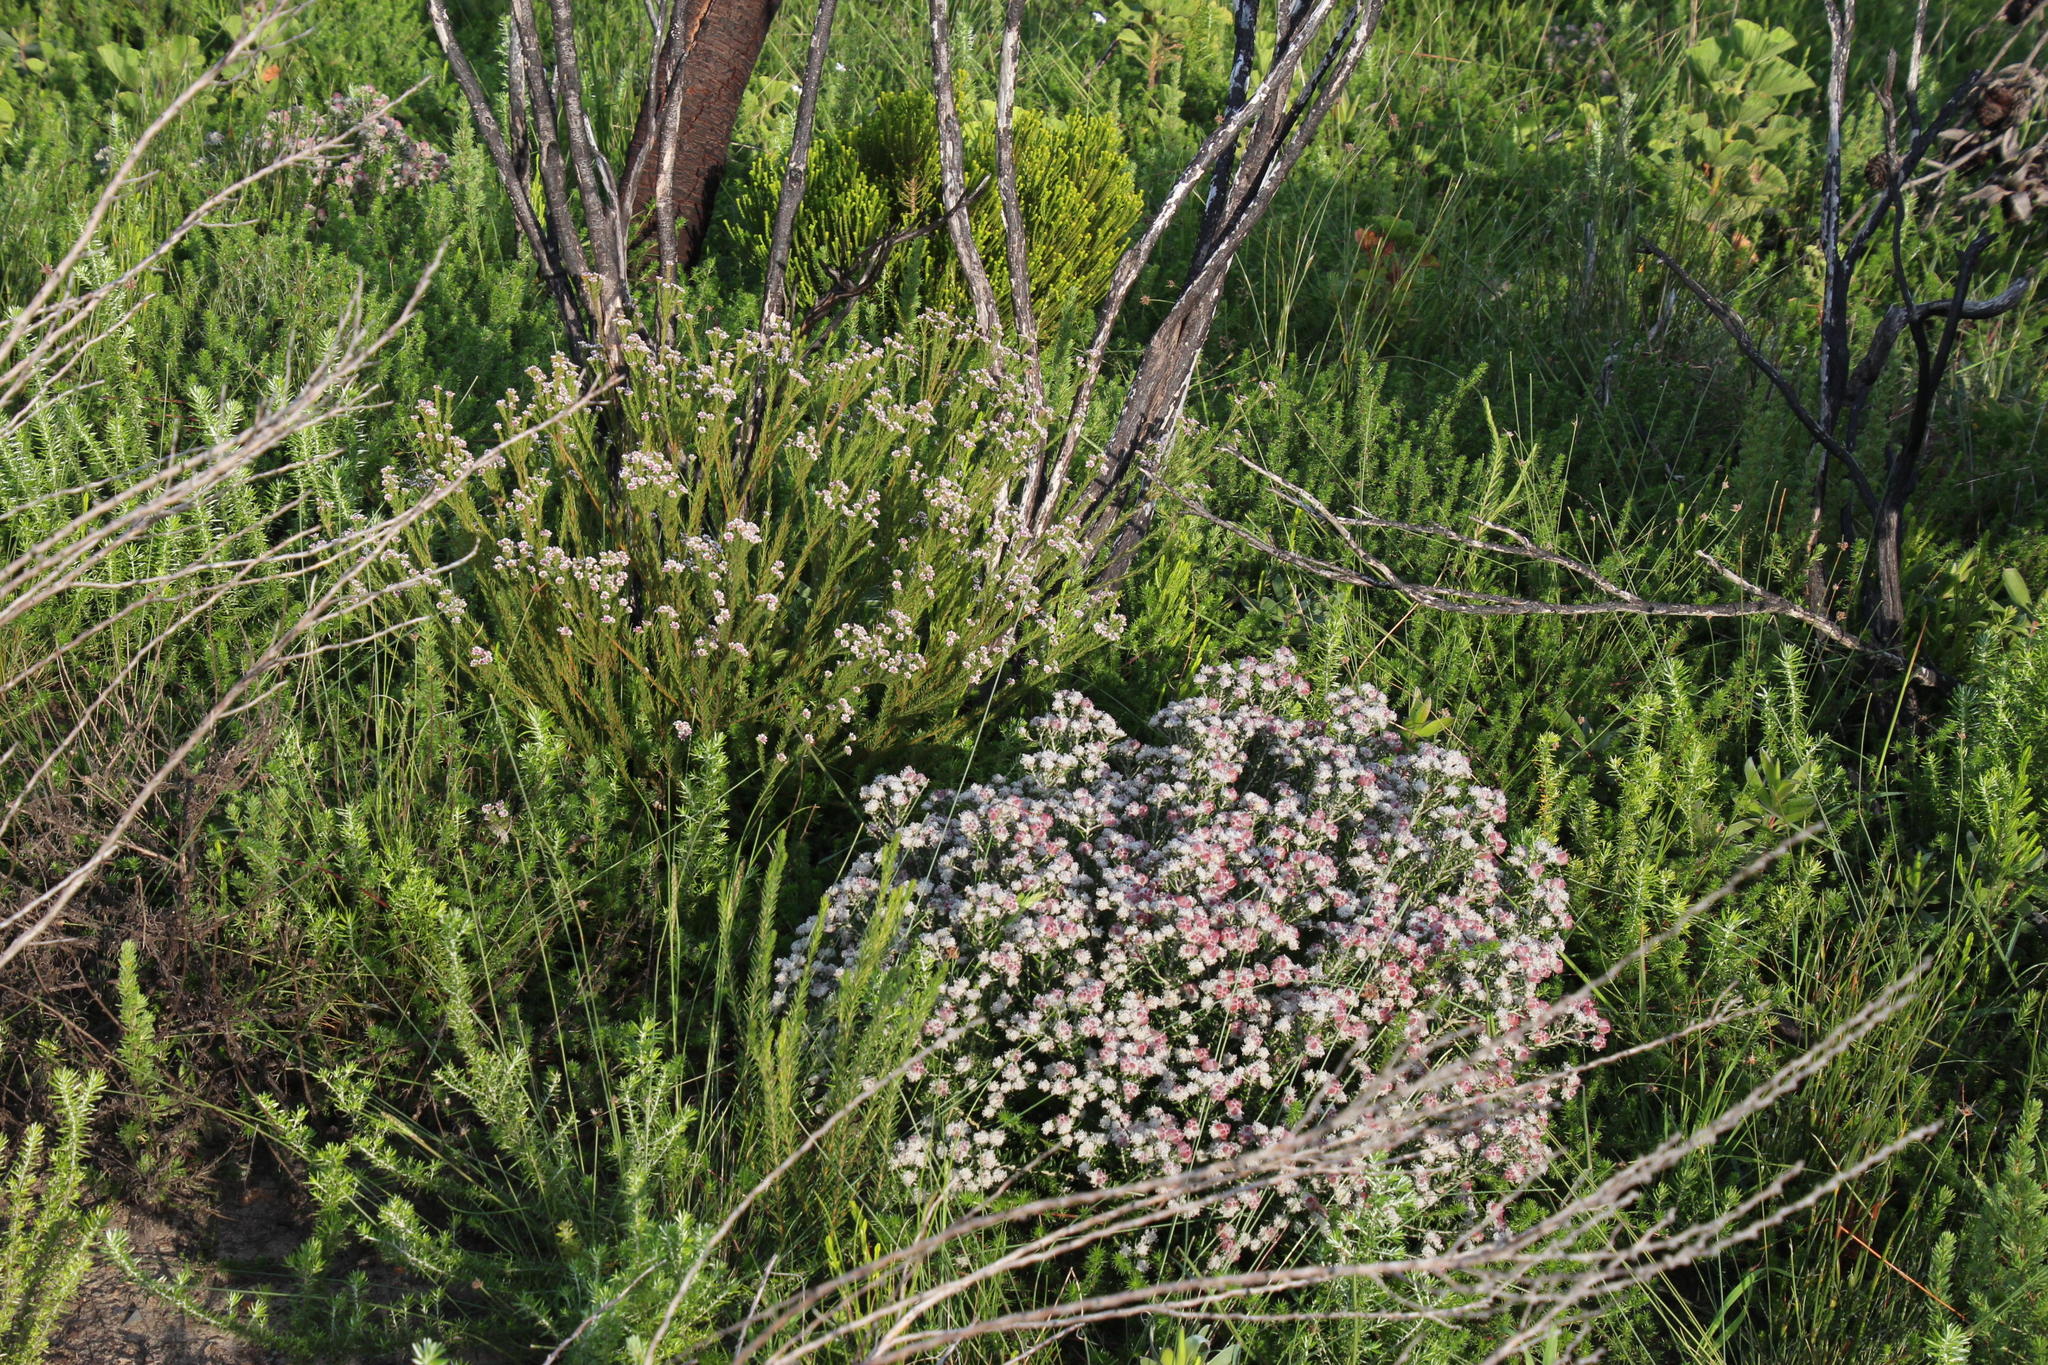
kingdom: Plantae
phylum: Tracheophyta
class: Magnoliopsida
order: Bruniales
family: Bruniaceae
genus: Staavia
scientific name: Staavia radiata
